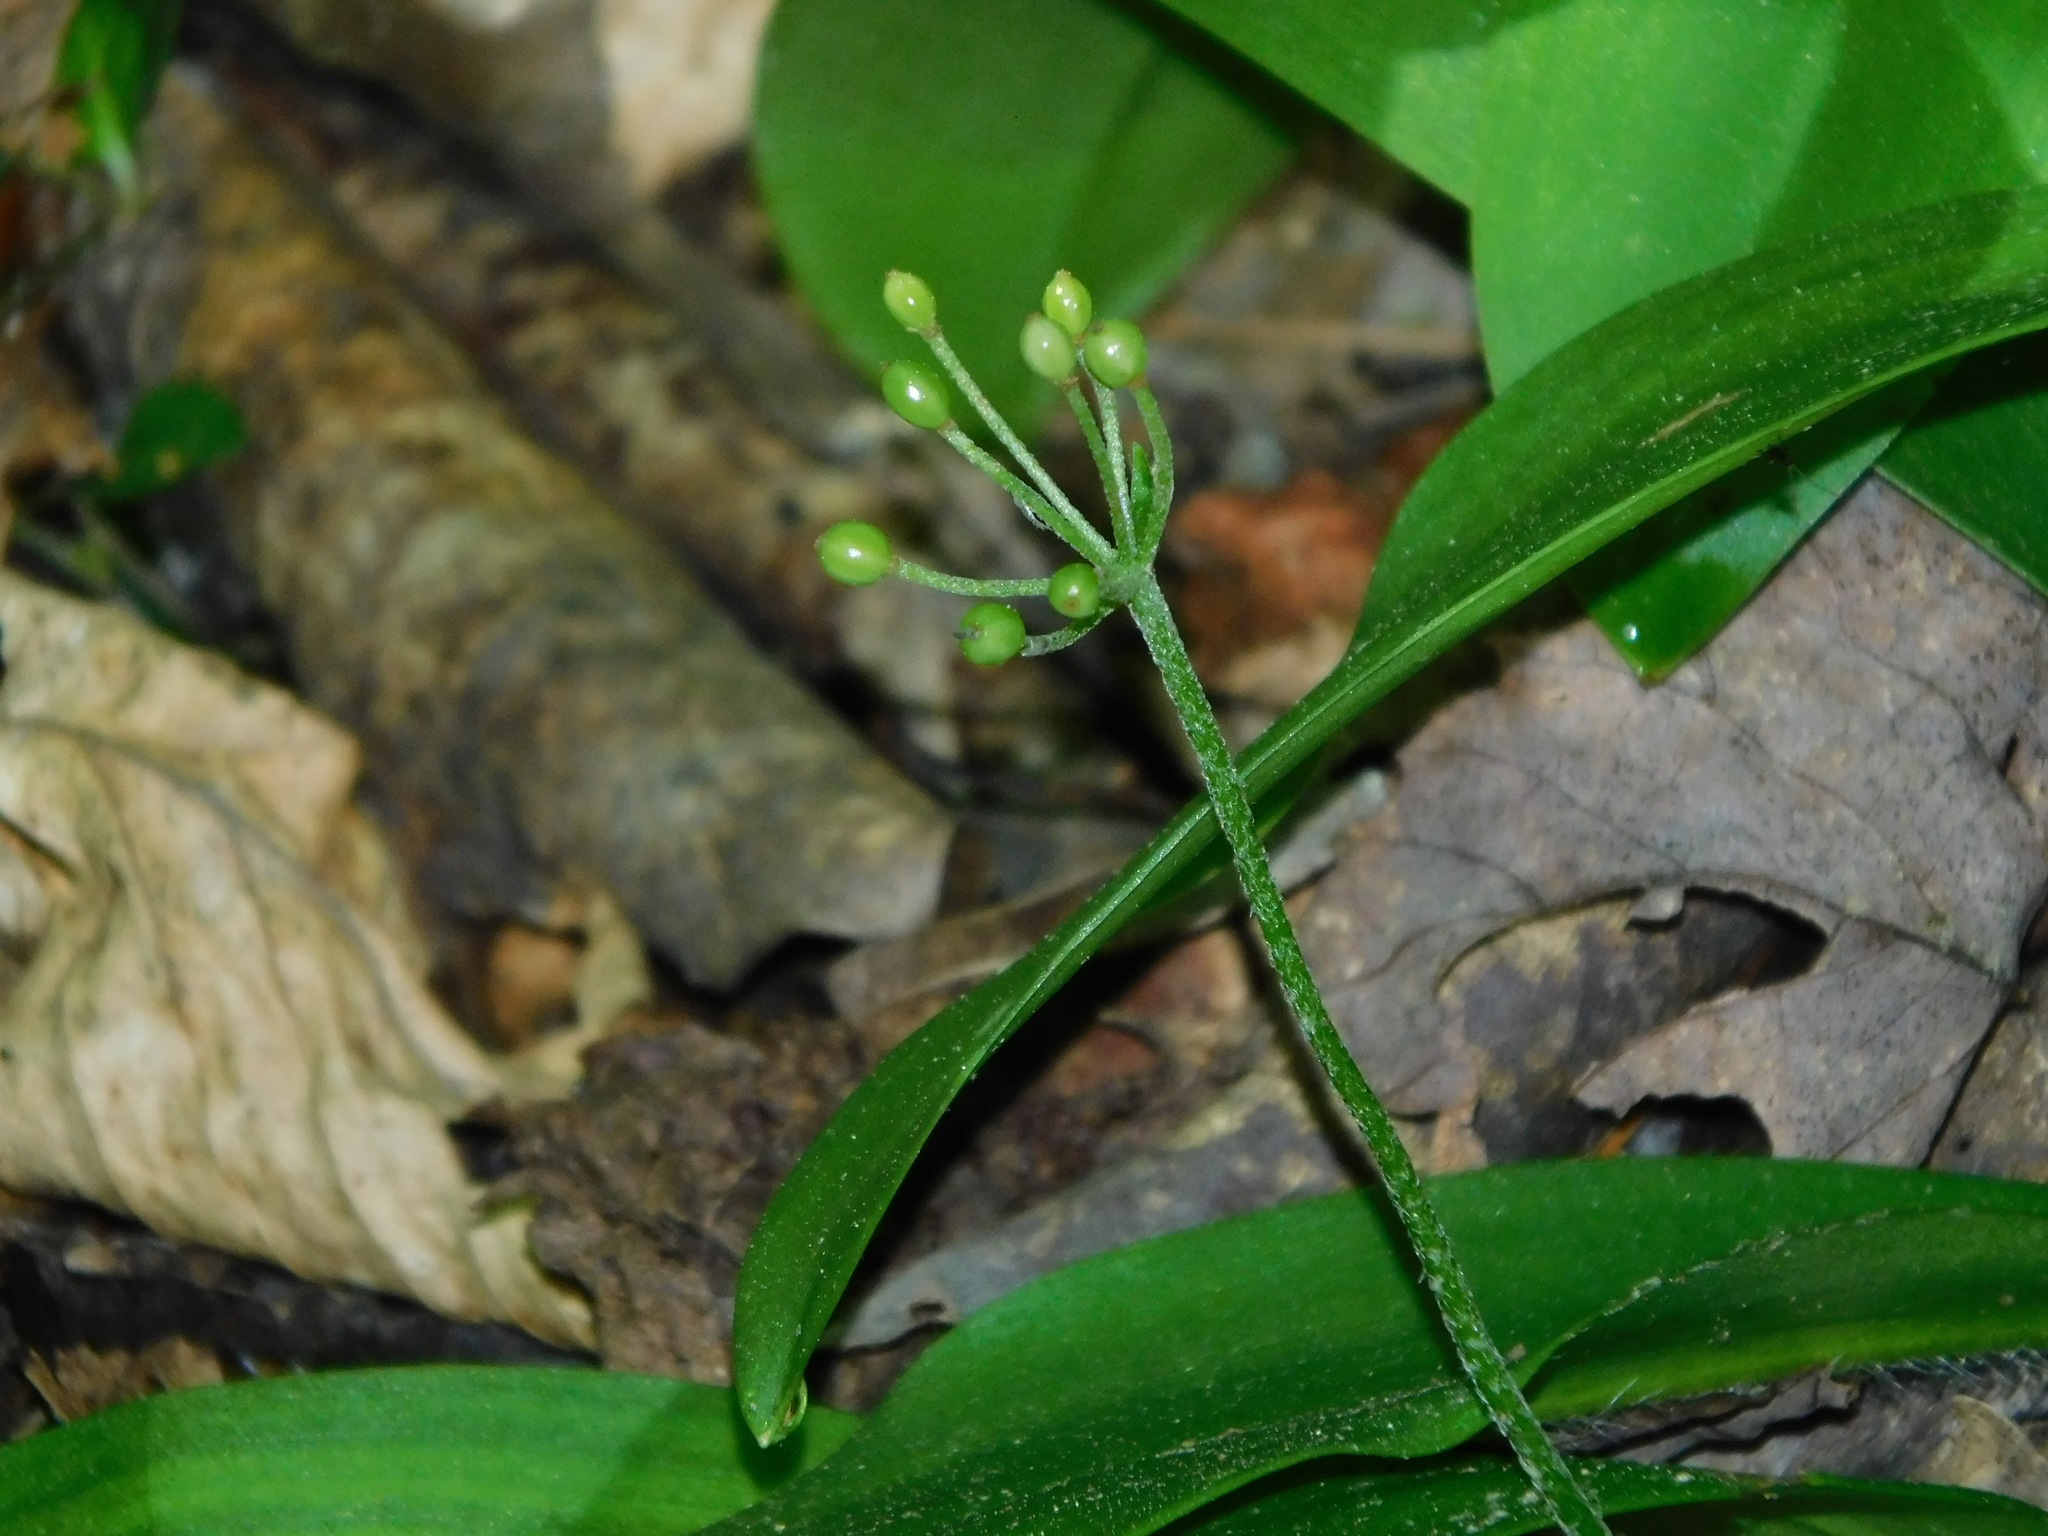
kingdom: Plantae
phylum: Tracheophyta
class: Liliopsida
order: Liliales
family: Liliaceae
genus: Clintonia
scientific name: Clintonia umbellulata
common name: Speckle wood-lily
